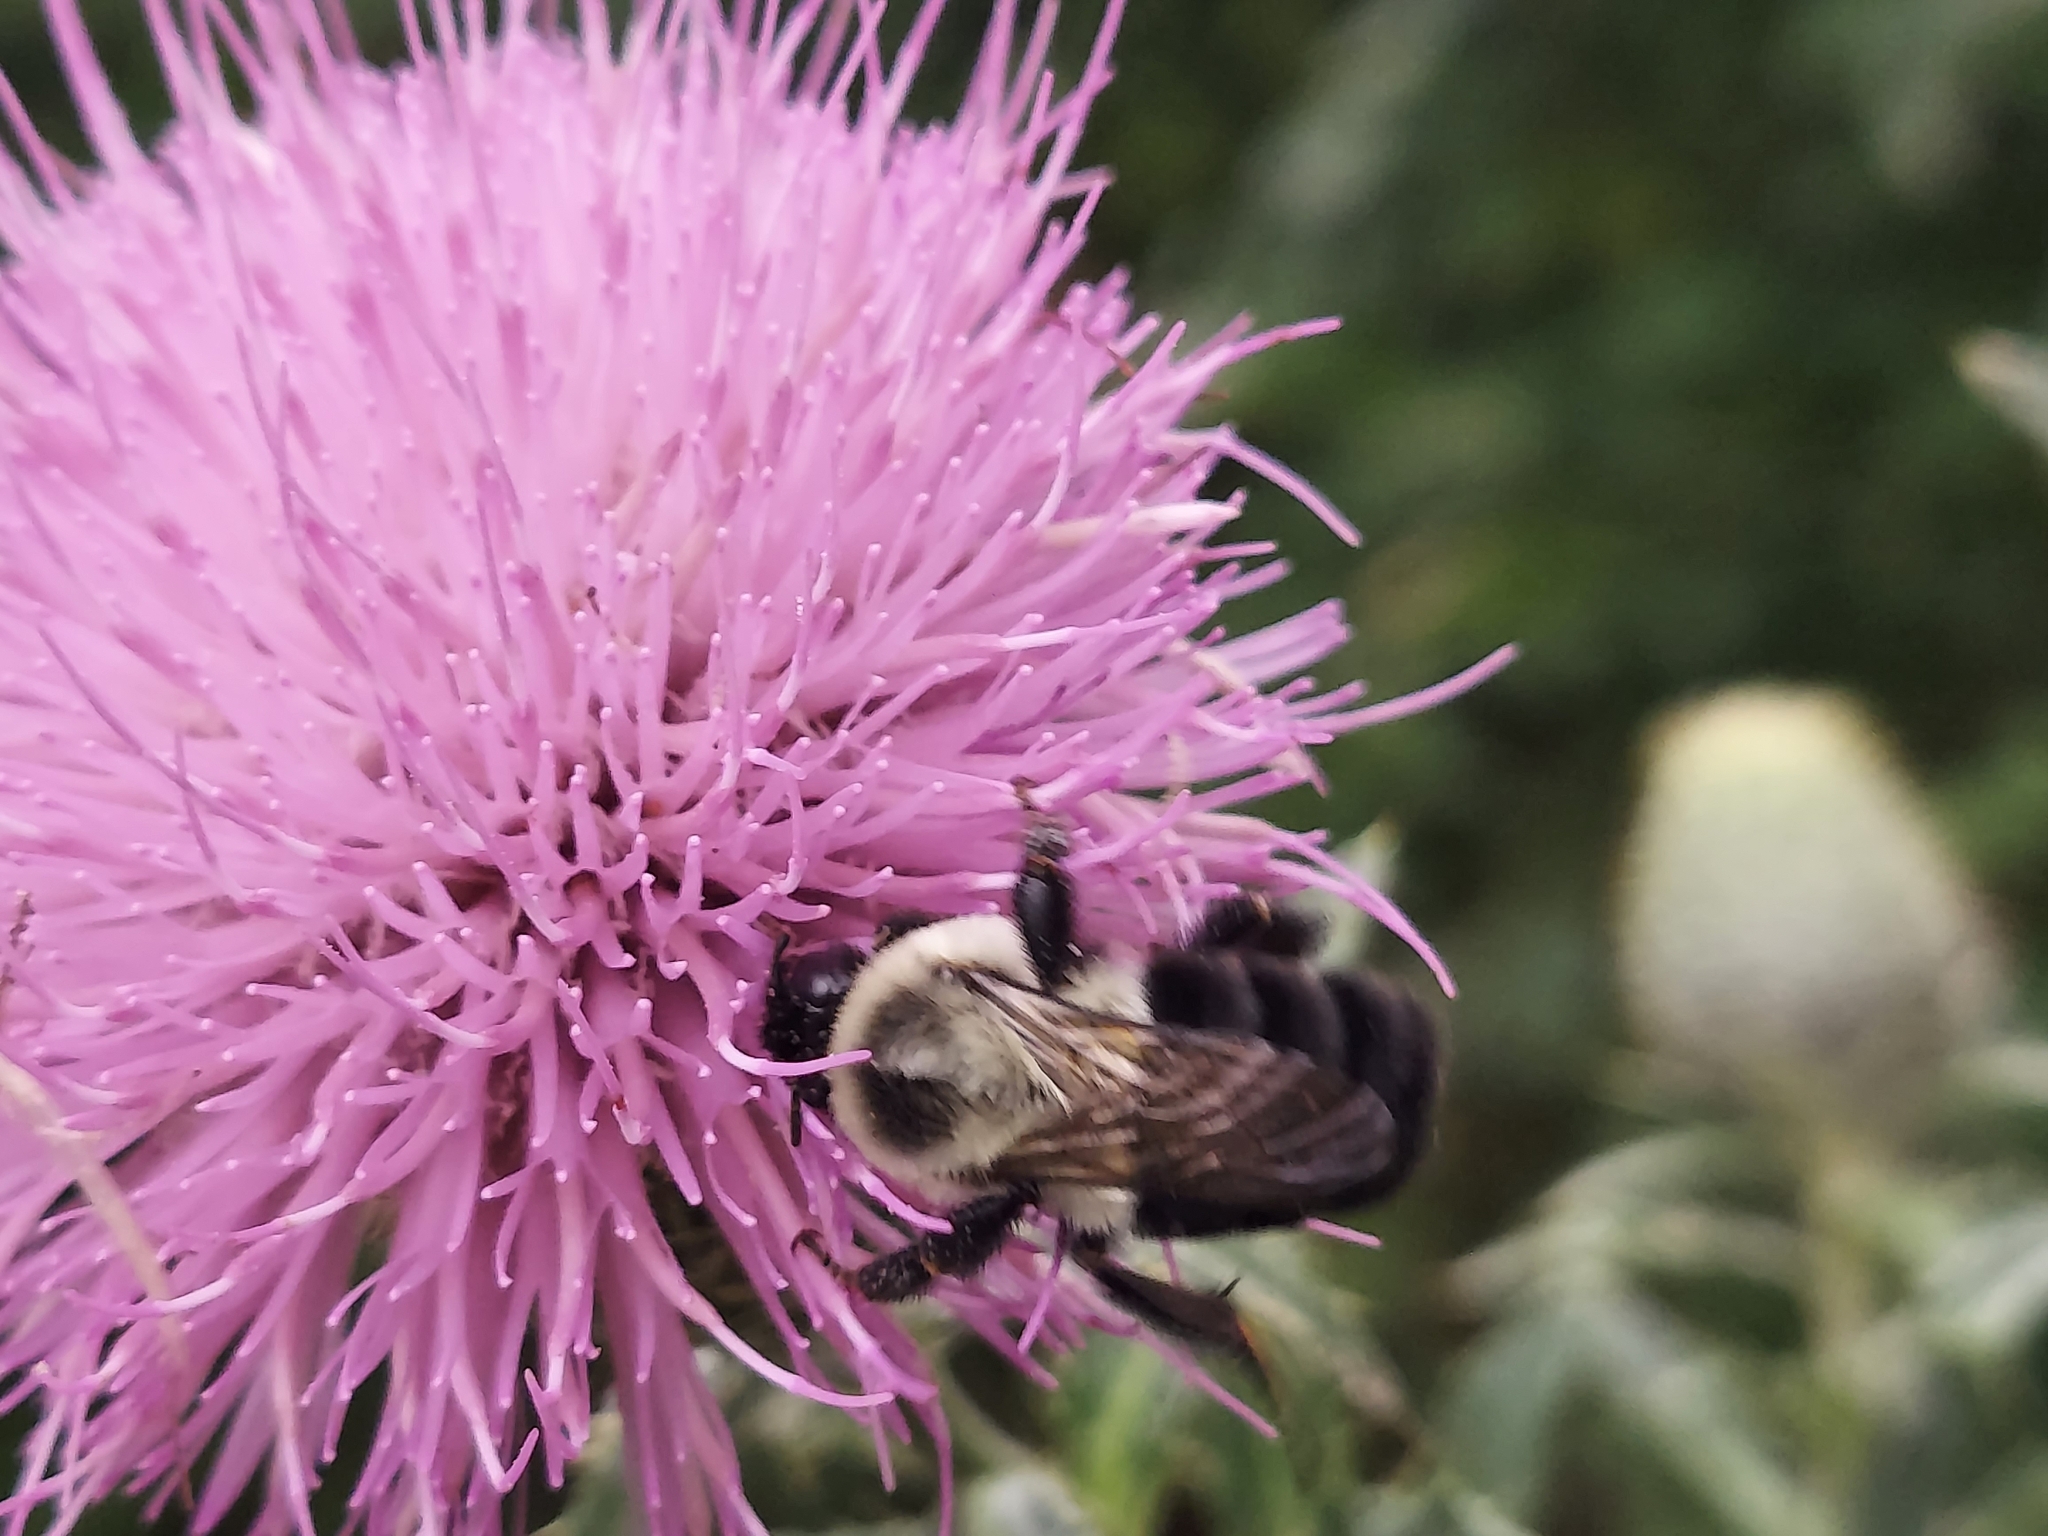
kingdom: Animalia
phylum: Arthropoda
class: Insecta
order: Hymenoptera
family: Apidae
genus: Bombus
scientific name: Bombus impatiens
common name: Common eastern bumble bee
